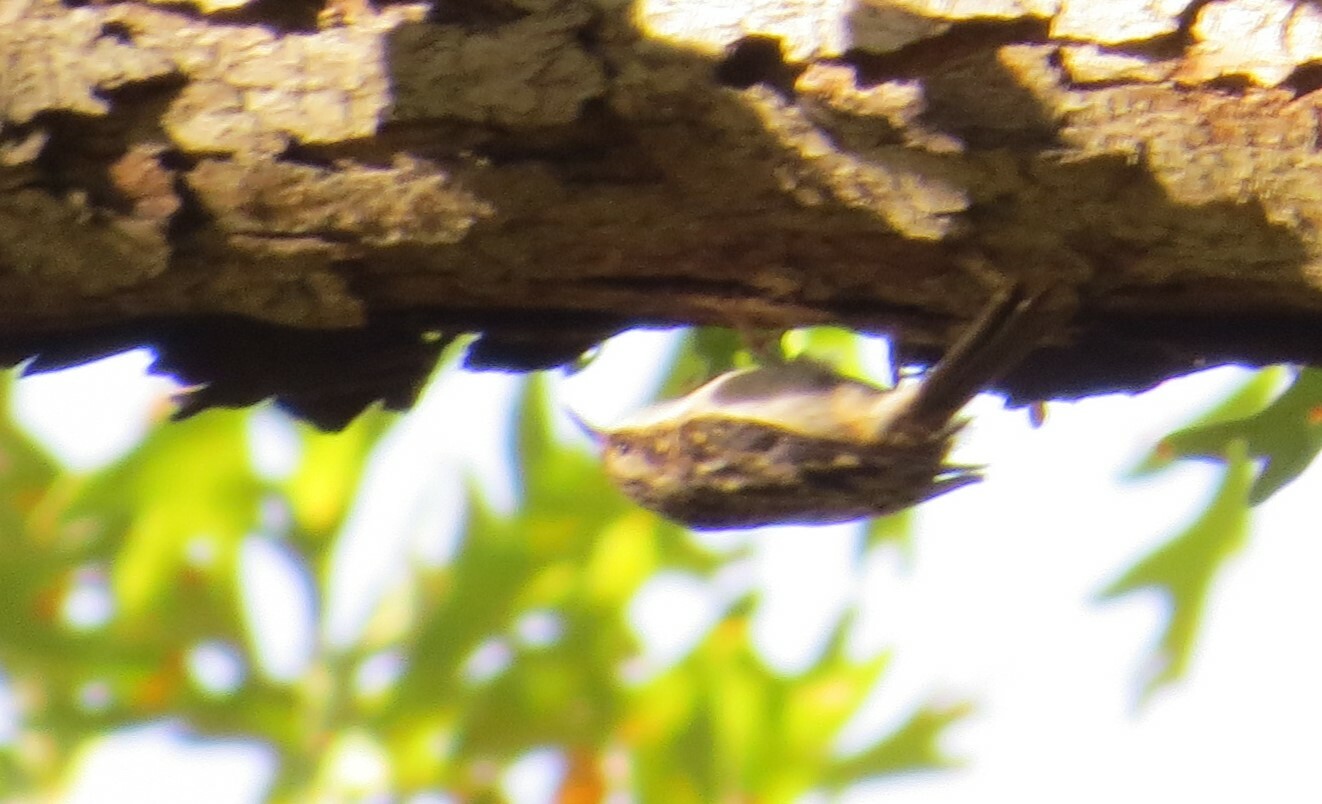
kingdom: Animalia
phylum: Chordata
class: Aves
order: Passeriformes
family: Certhiidae
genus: Certhia
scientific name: Certhia americana
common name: Brown creeper
